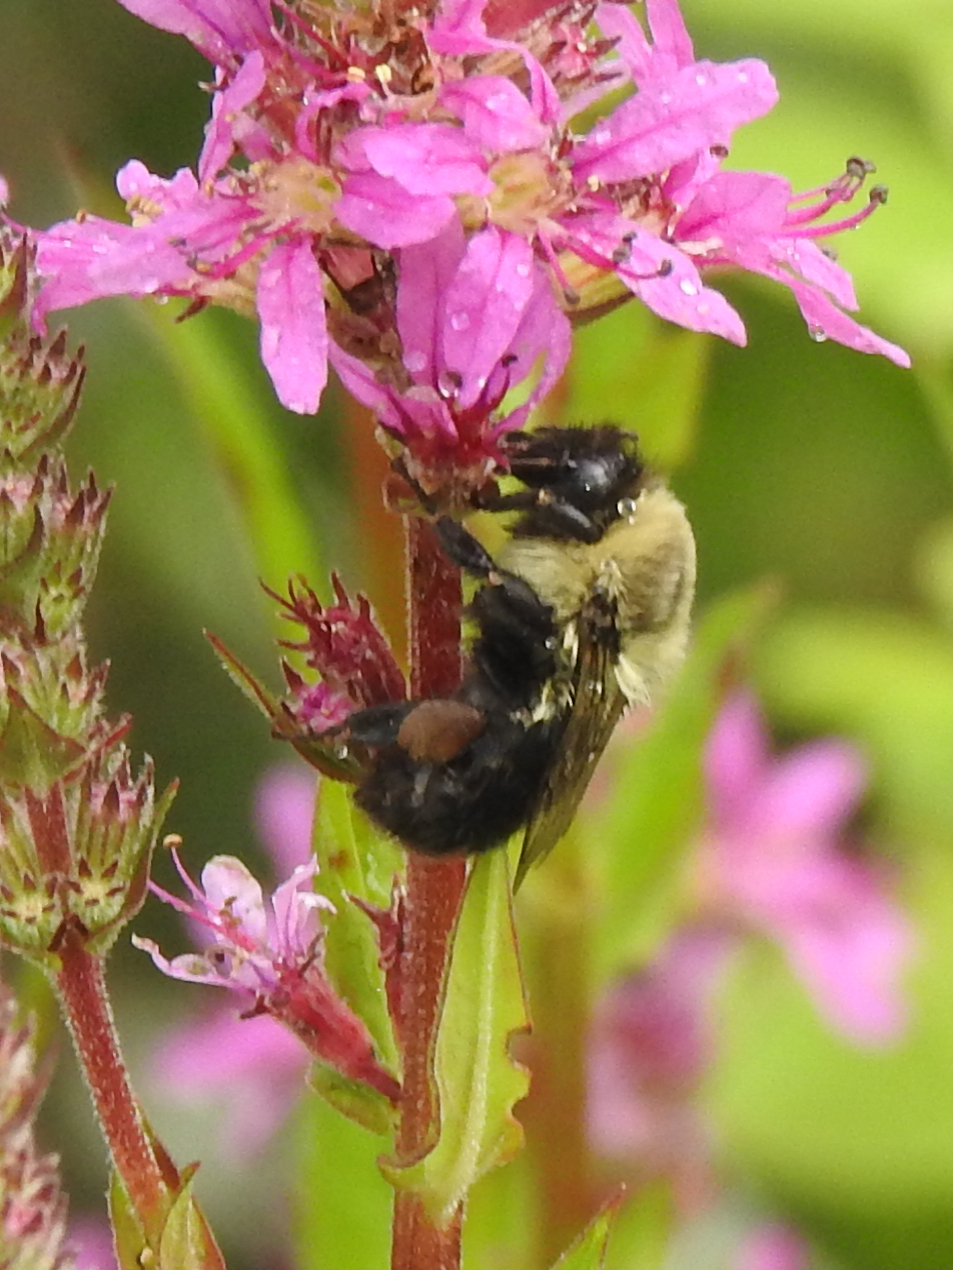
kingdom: Animalia
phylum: Arthropoda
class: Insecta
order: Hymenoptera
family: Apidae
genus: Bombus
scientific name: Bombus impatiens
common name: Common eastern bumble bee
